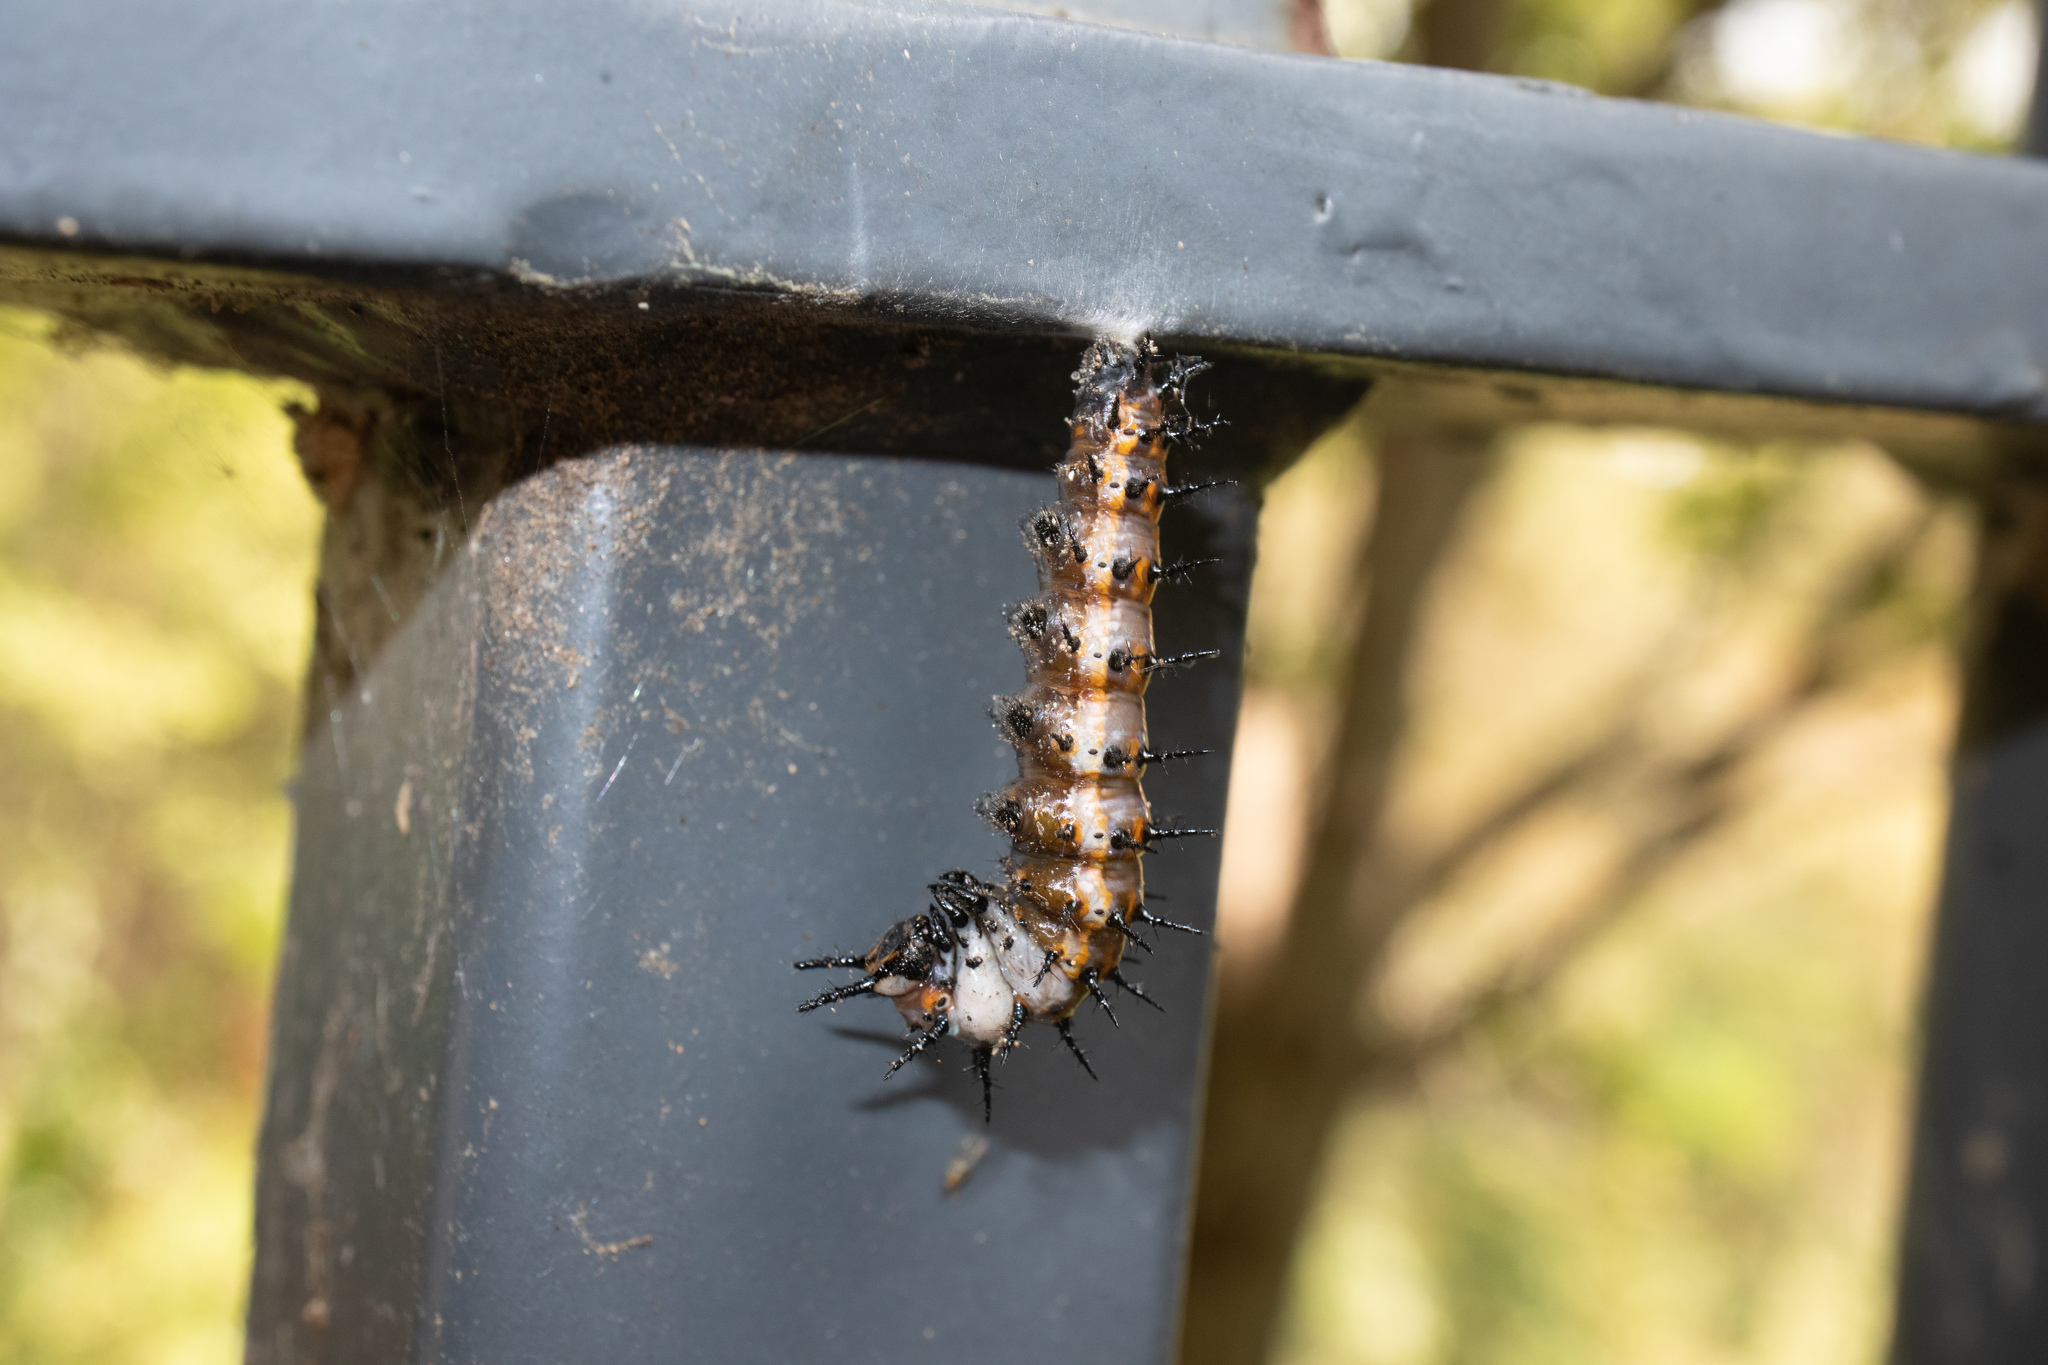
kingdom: Animalia
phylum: Arthropoda
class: Insecta
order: Lepidoptera
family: Nymphalidae
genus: Dione
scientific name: Dione vanillae
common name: Gulf fritillary
